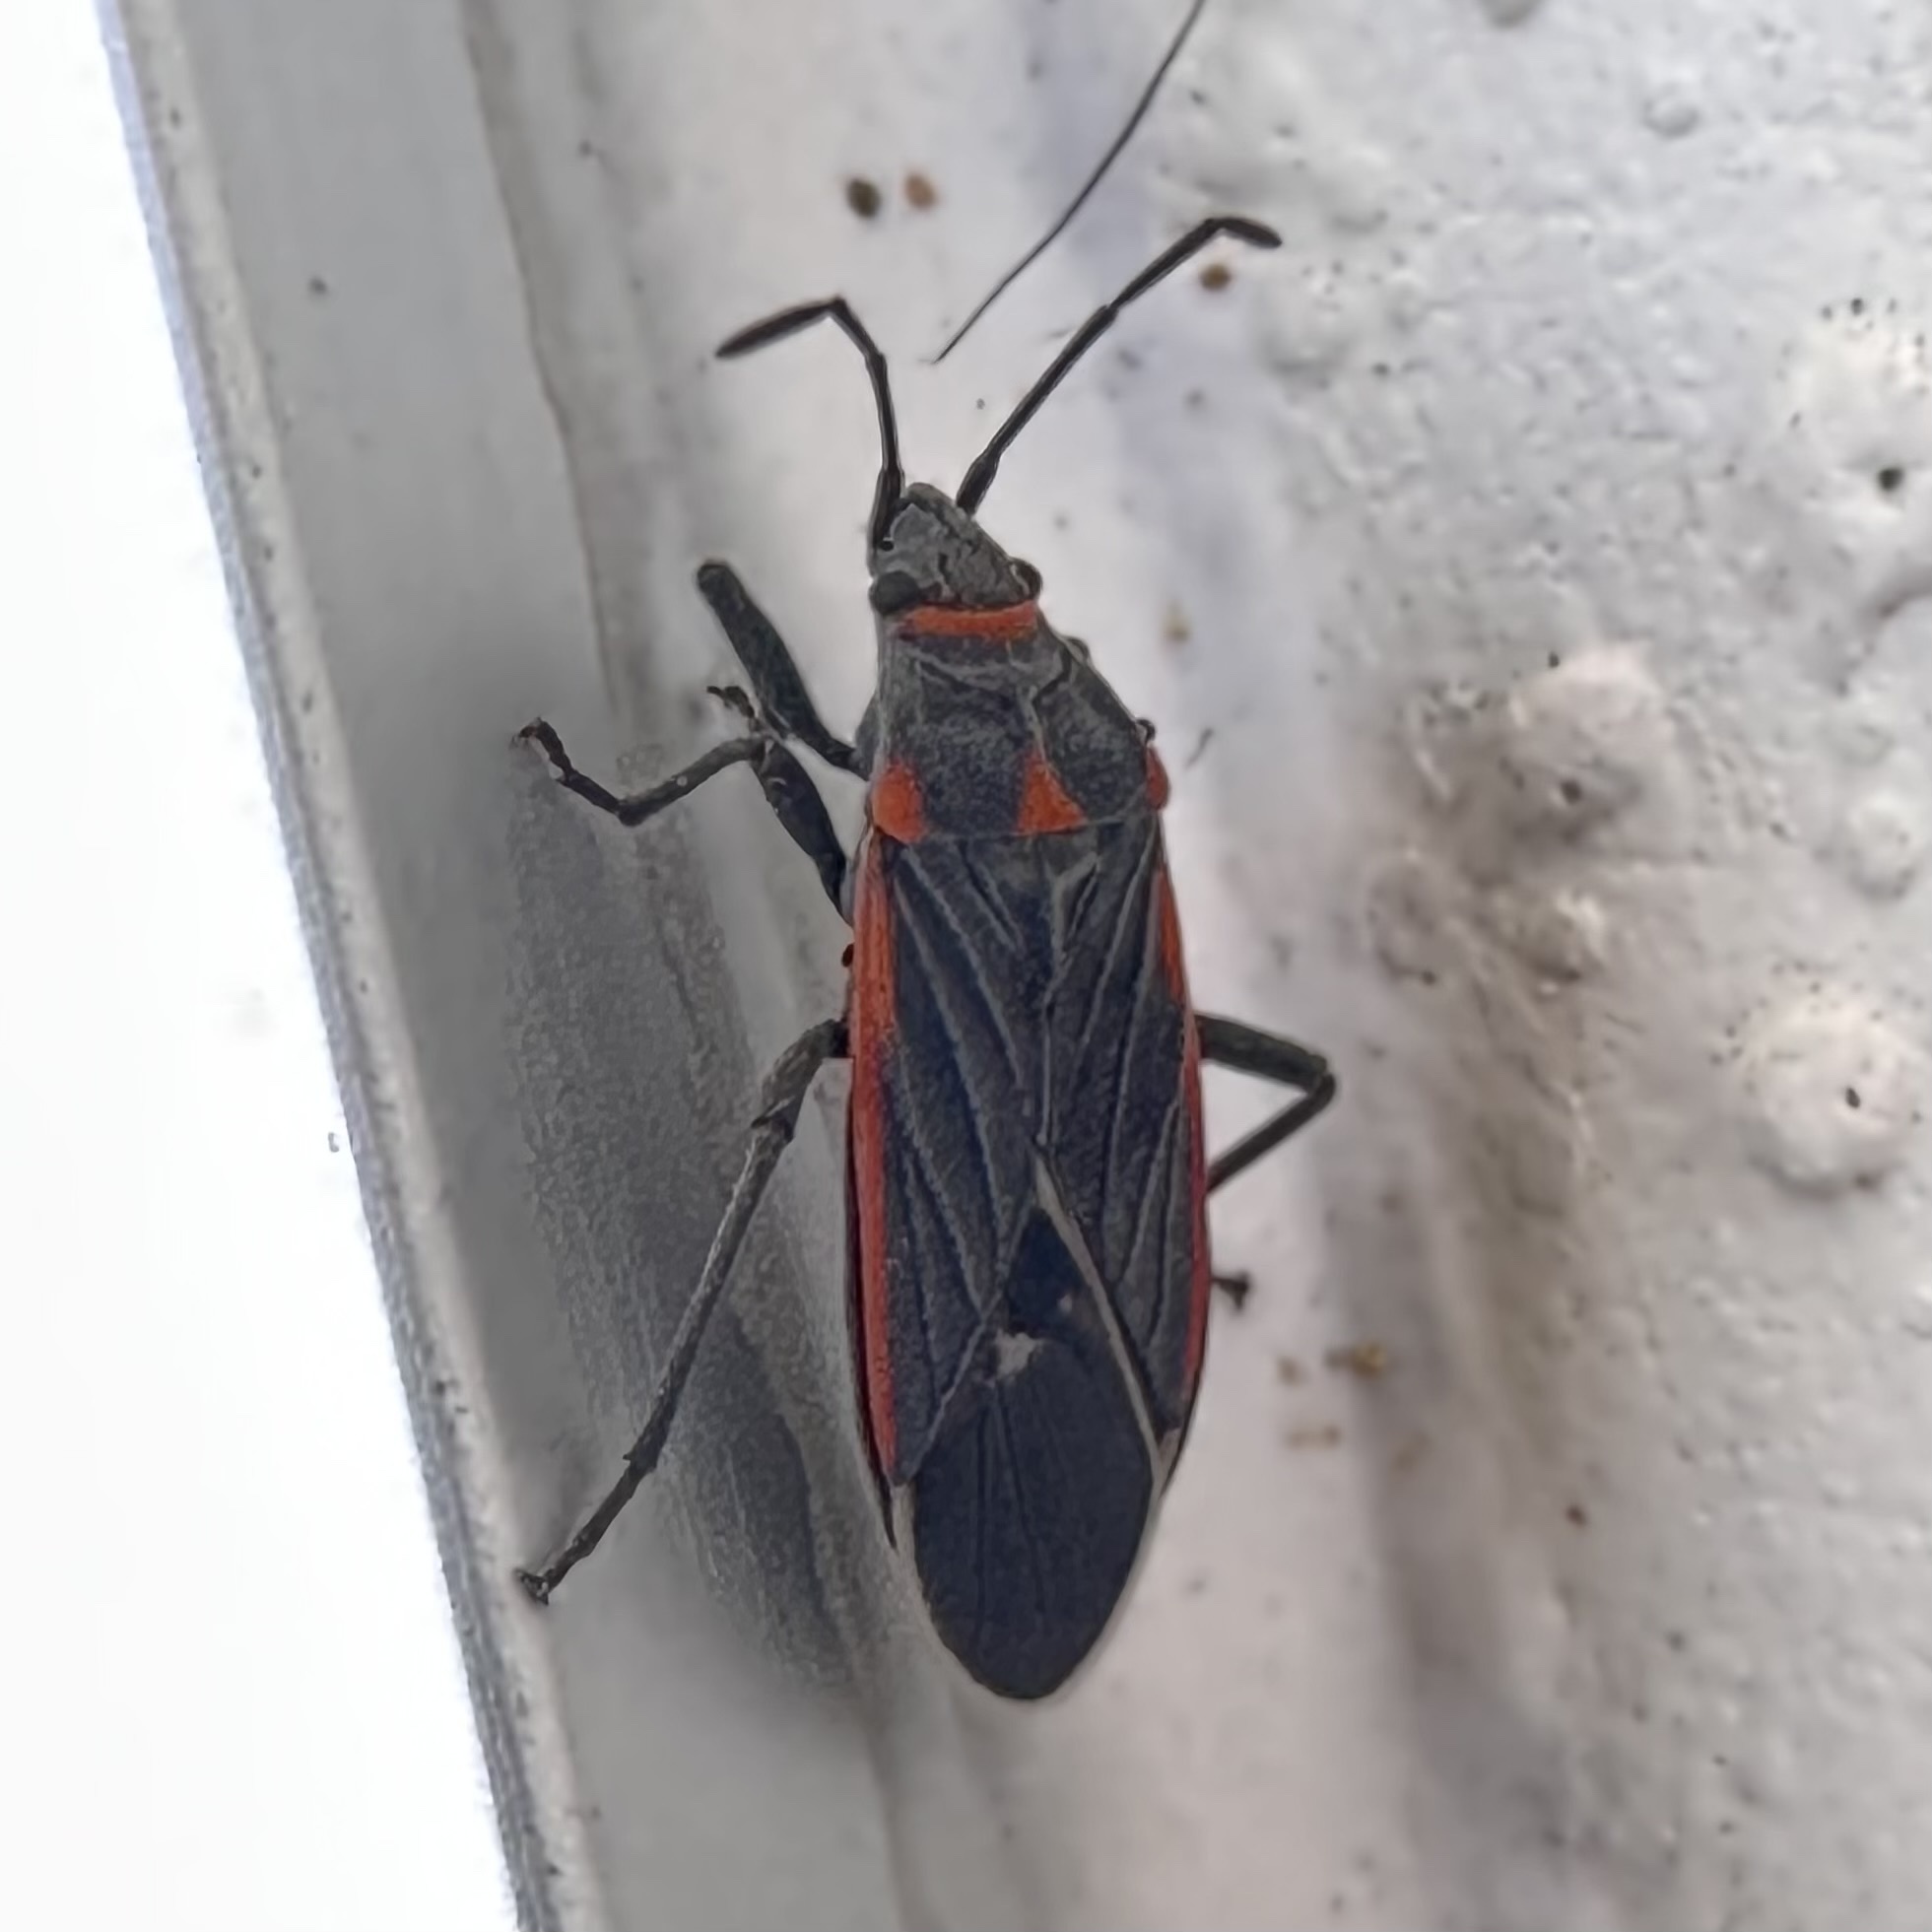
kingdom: Animalia
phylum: Arthropoda
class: Insecta
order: Hemiptera
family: Lygaeidae
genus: Melacoryphus
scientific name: Melacoryphus lateralis
